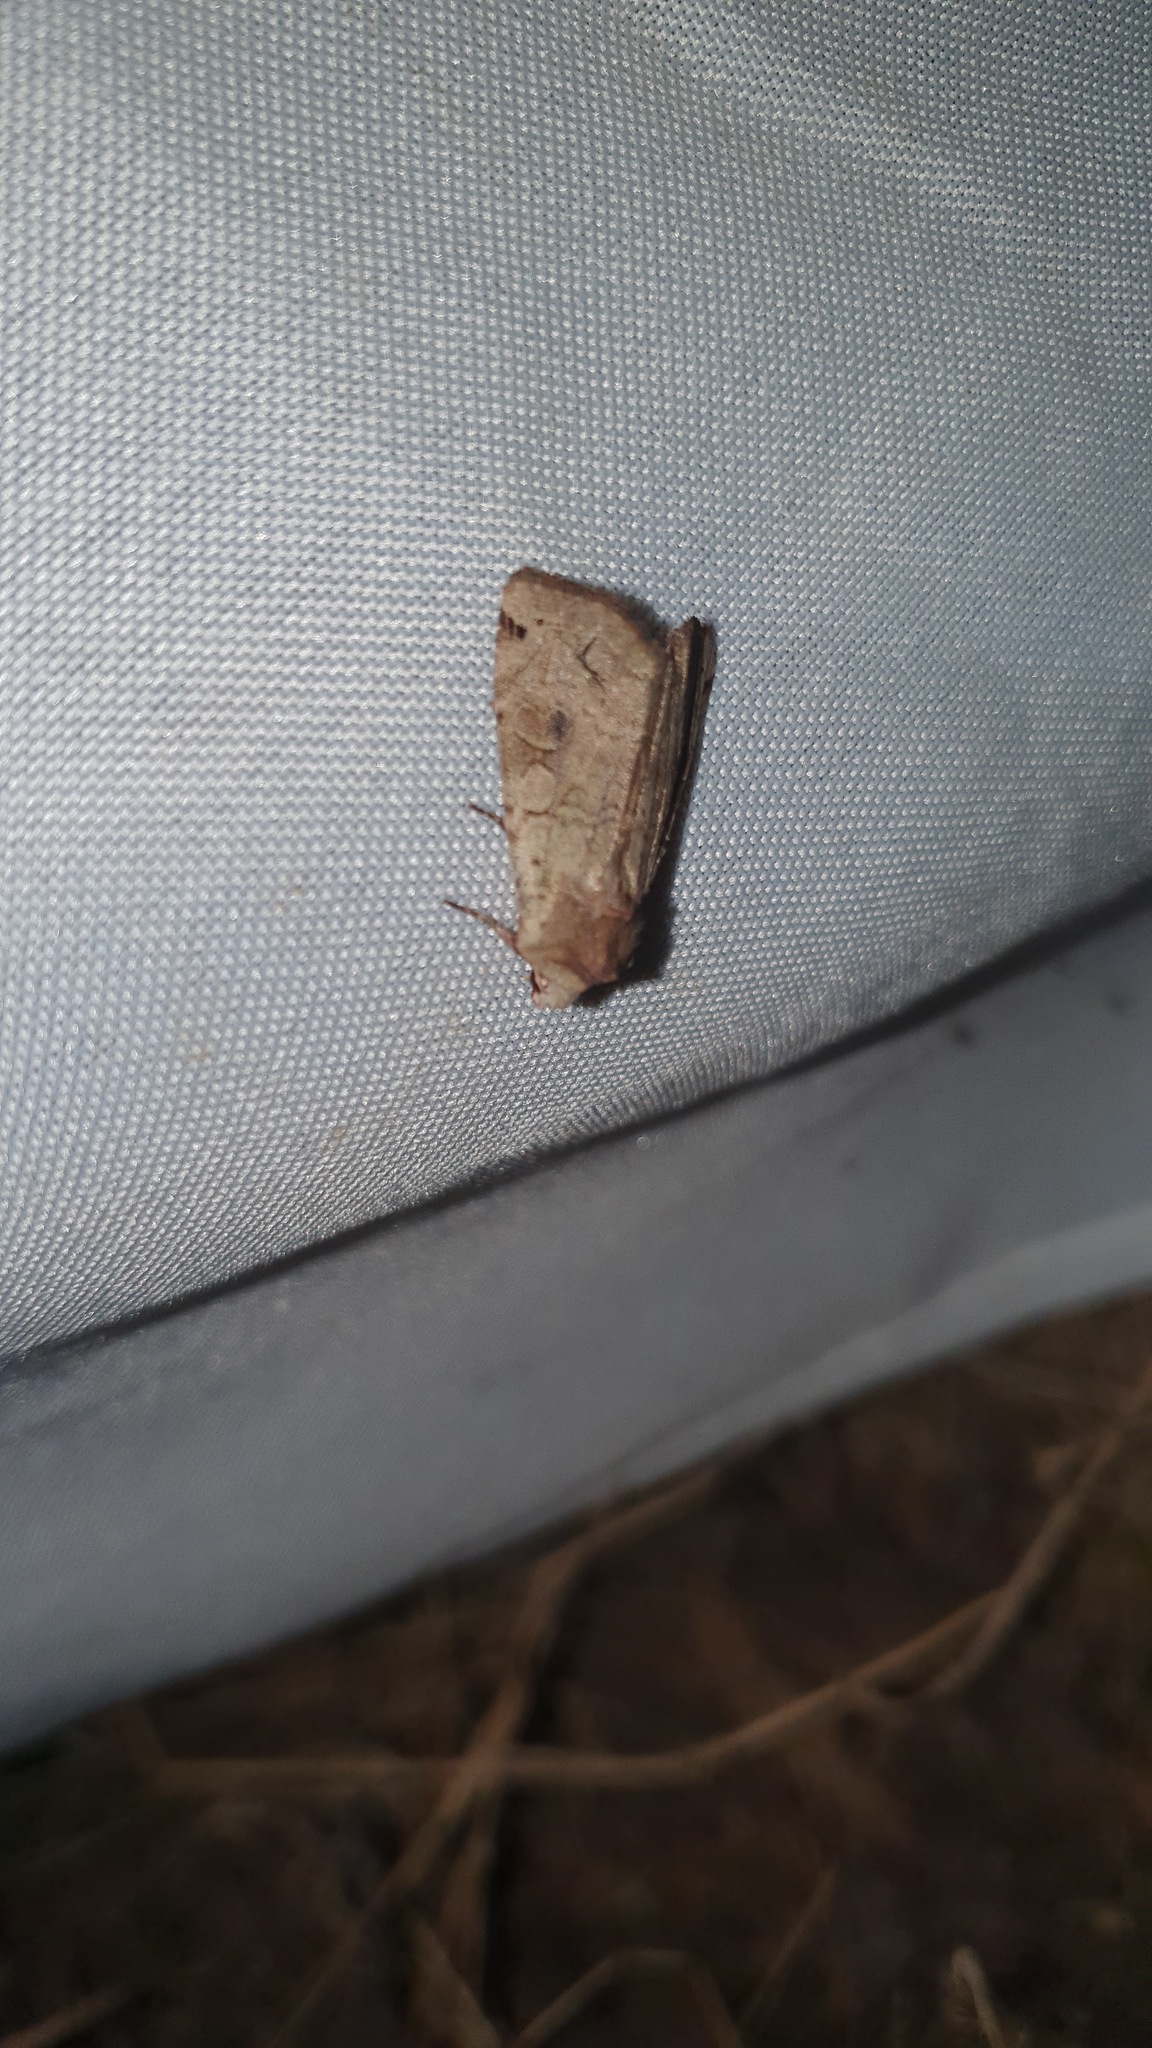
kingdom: Animalia
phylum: Arthropoda
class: Insecta
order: Lepidoptera
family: Noctuidae
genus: Xestia
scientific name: Xestia baja
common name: Dotted clay
